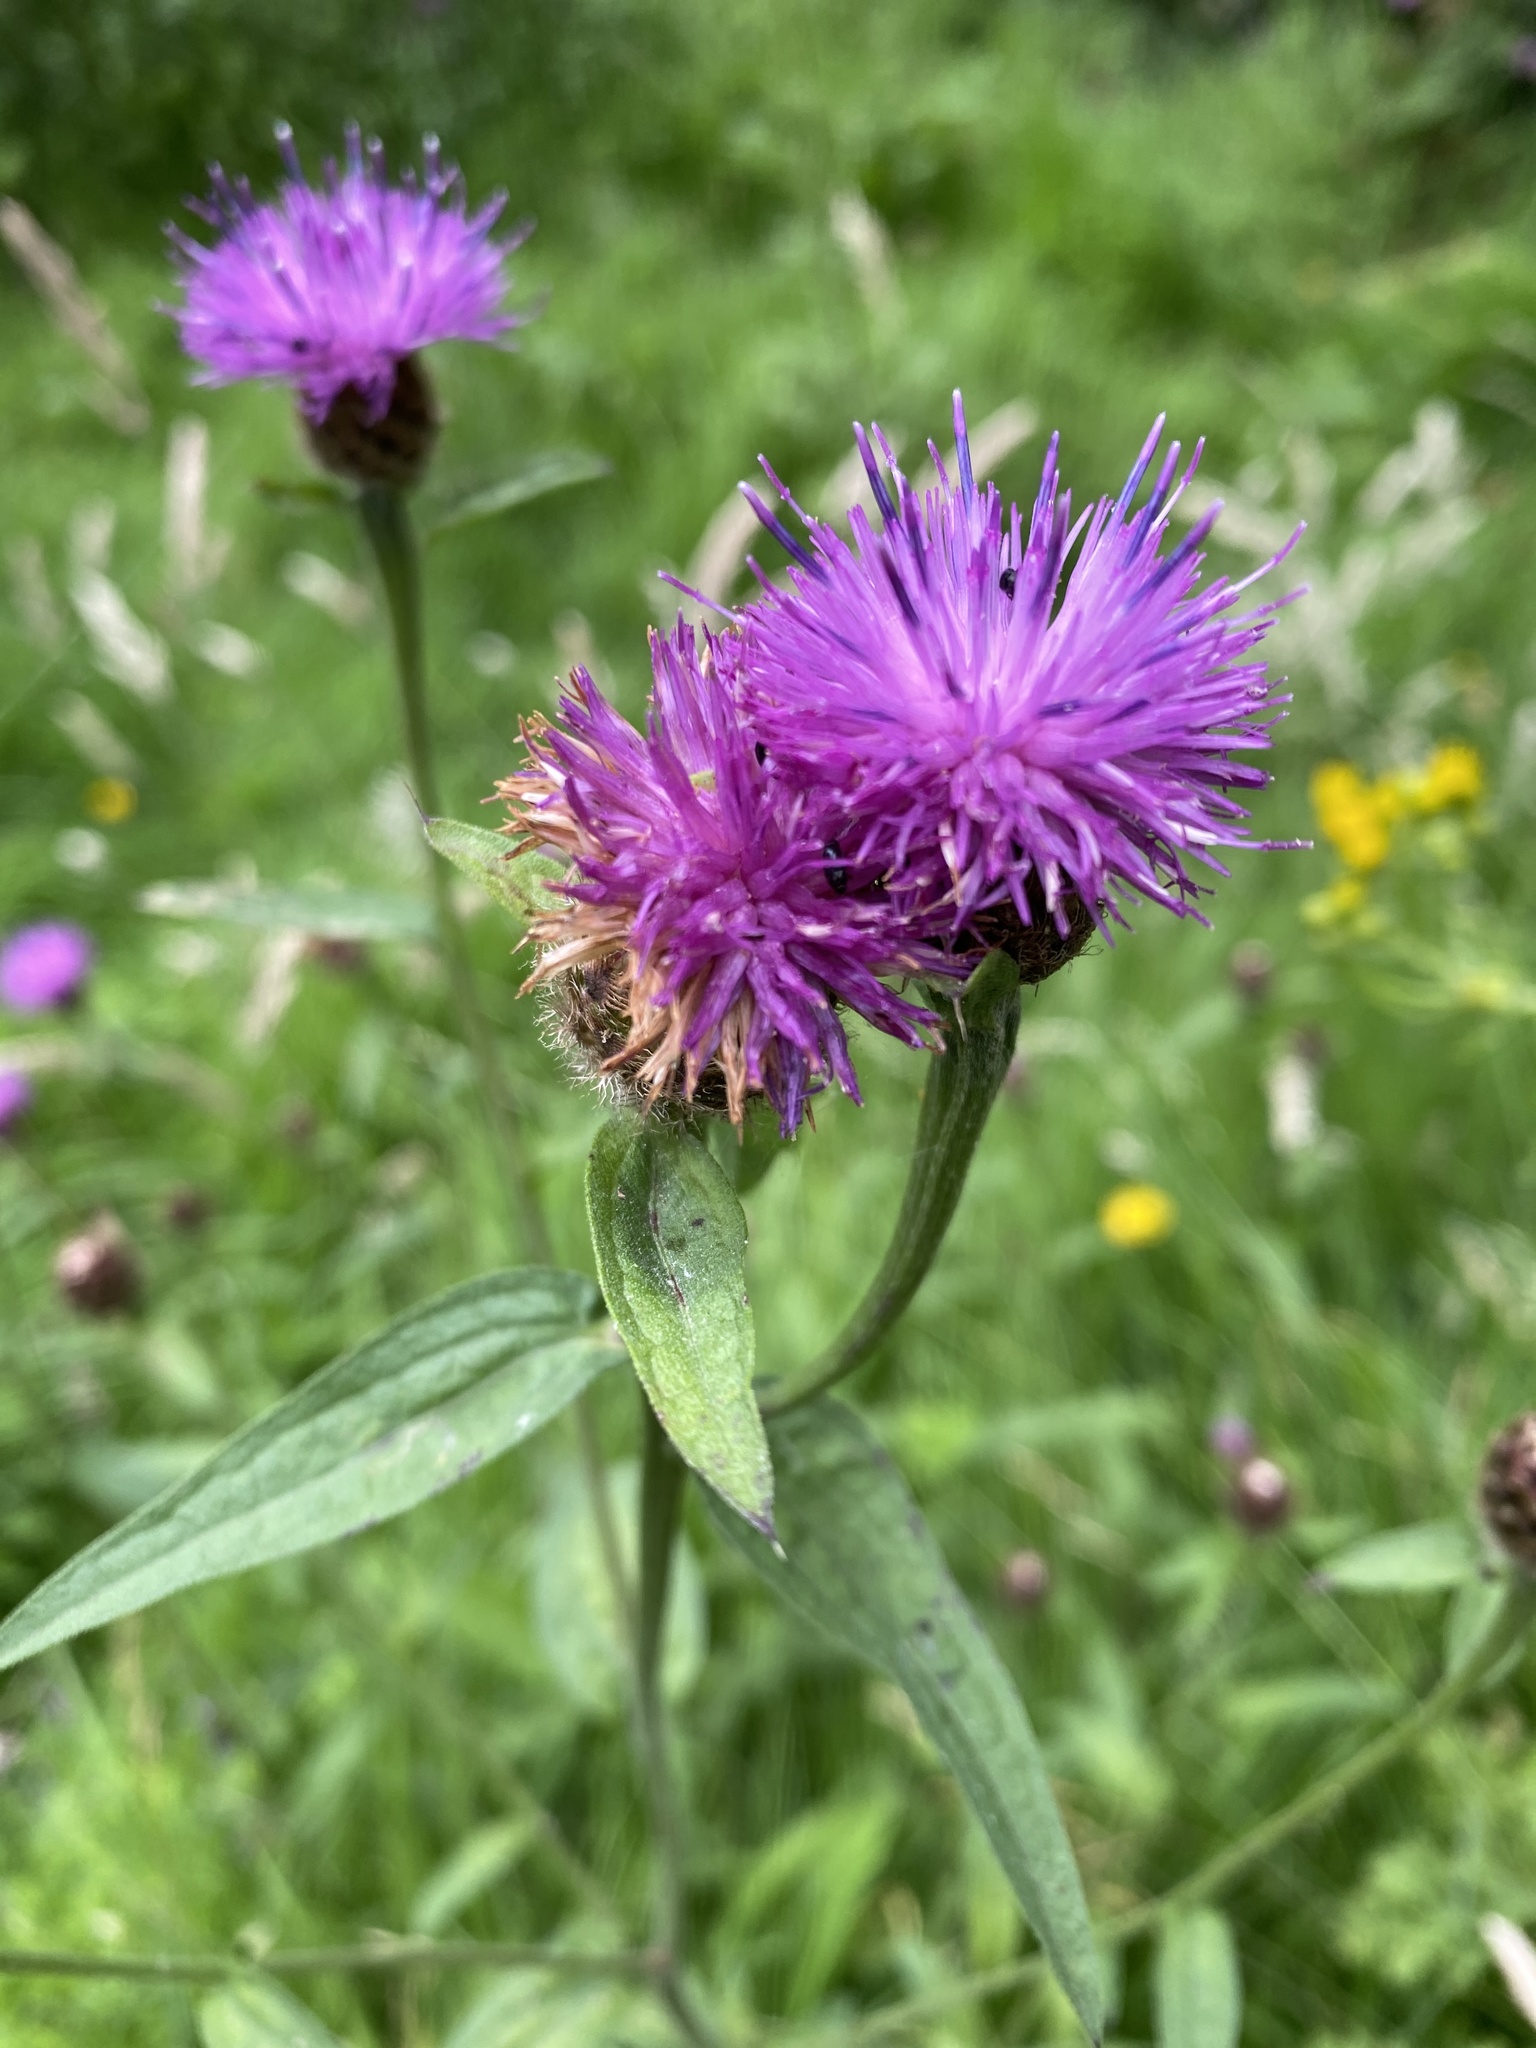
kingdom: Plantae
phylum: Tracheophyta
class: Magnoliopsida
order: Asterales
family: Asteraceae
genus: Centaurea
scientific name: Centaurea nigra
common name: Lesser knapweed
